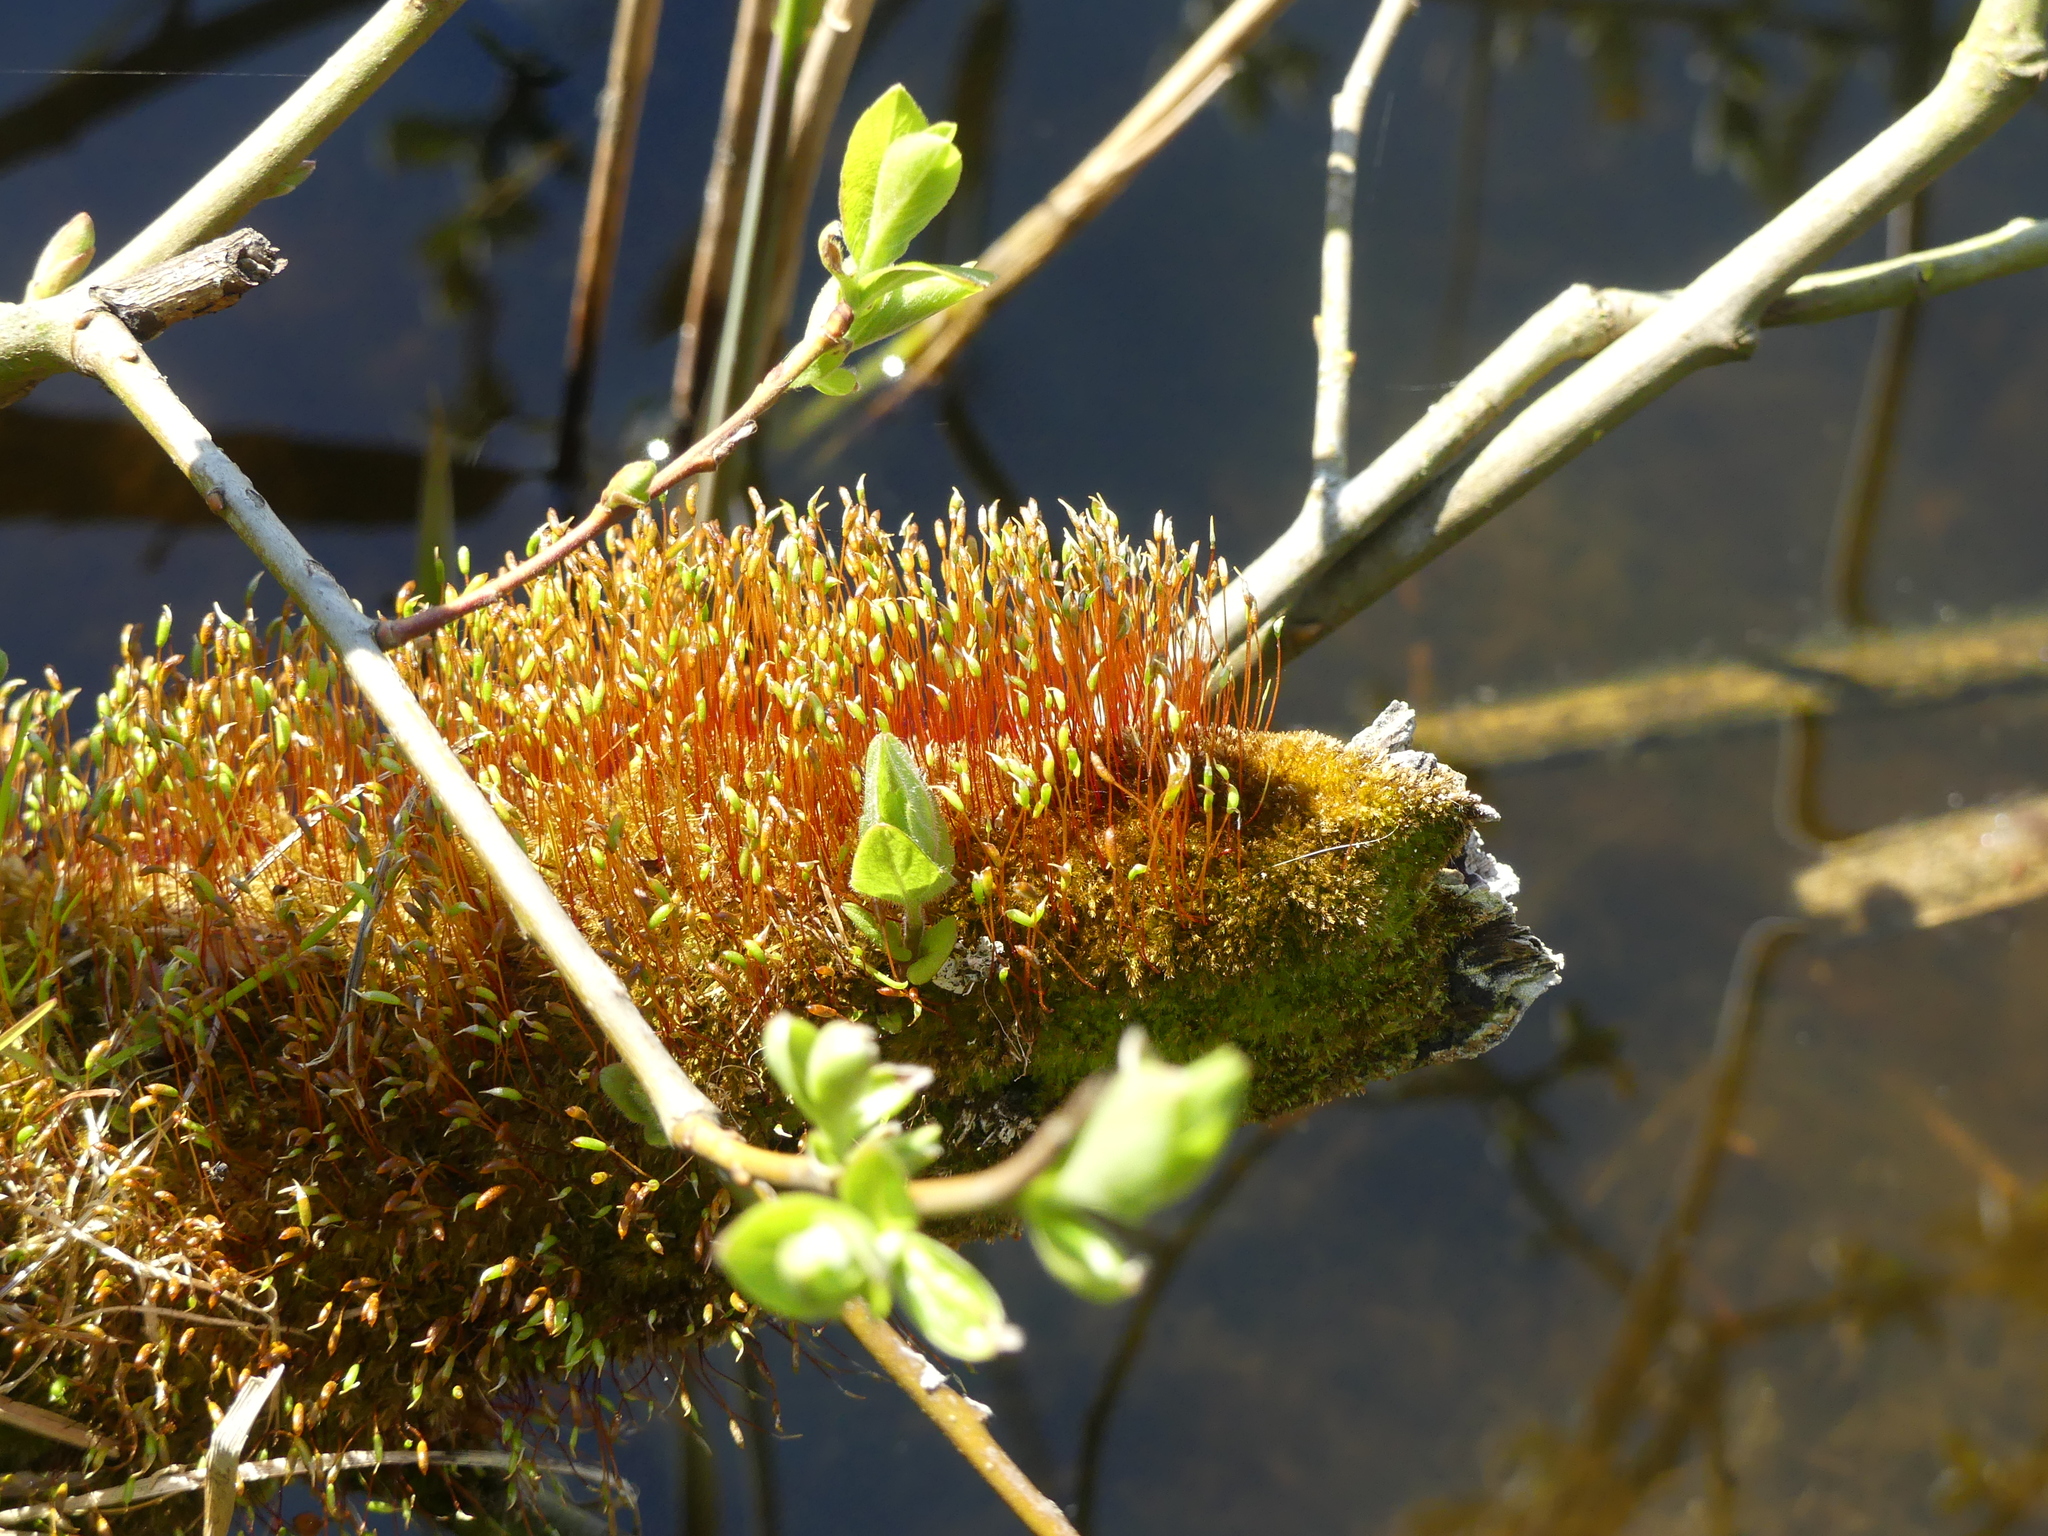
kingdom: Plantae
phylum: Bryophyta
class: Bryopsida
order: Hypnales
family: Amblystegiaceae
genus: Amblystegium
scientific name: Amblystegium serpens
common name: Jurkatzka's feather moss
